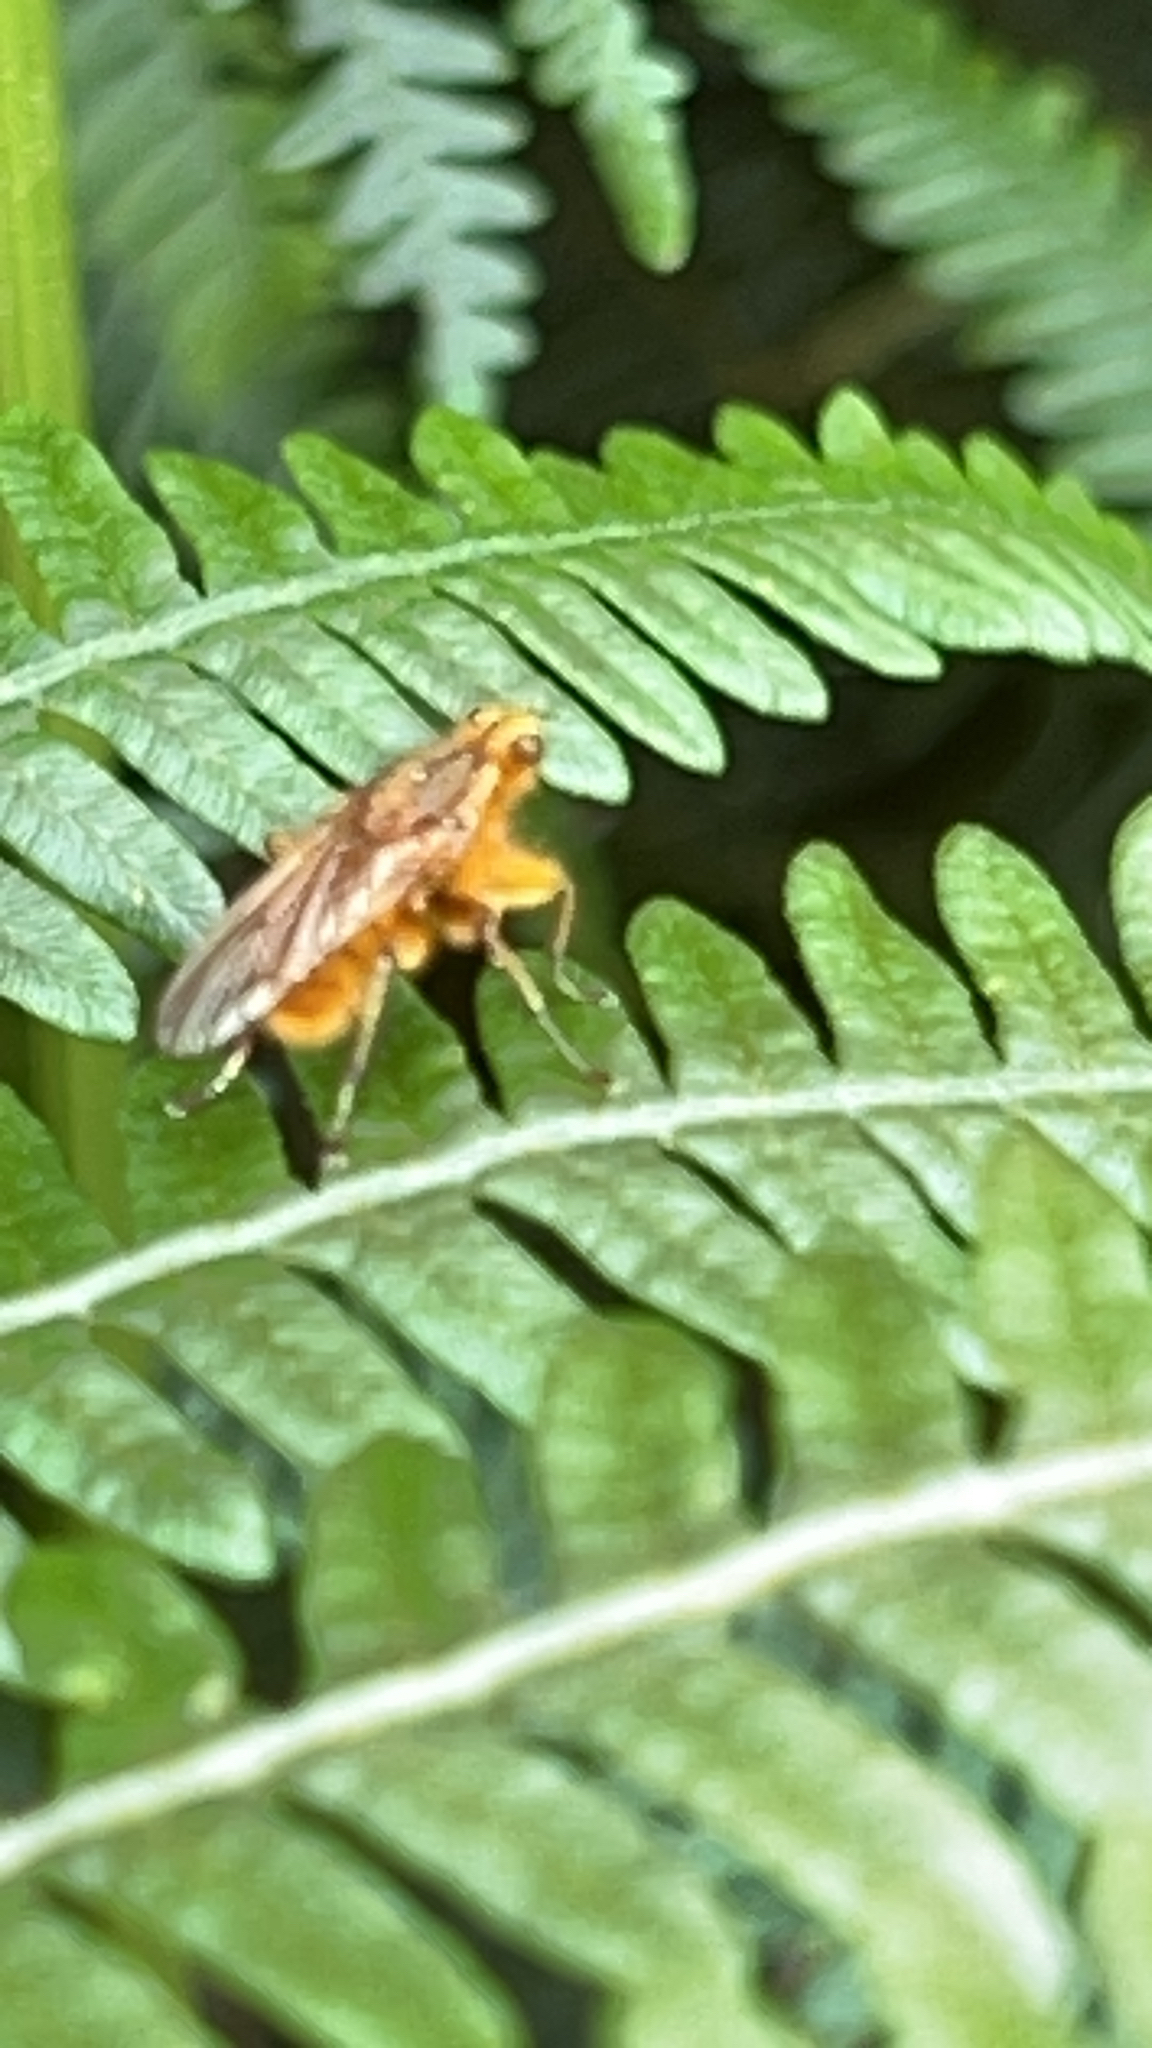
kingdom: Animalia
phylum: Arthropoda
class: Insecta
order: Diptera
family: Scathophagidae
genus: Scathophaga
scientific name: Scathophaga stercoraria
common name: Yellow dung fly
